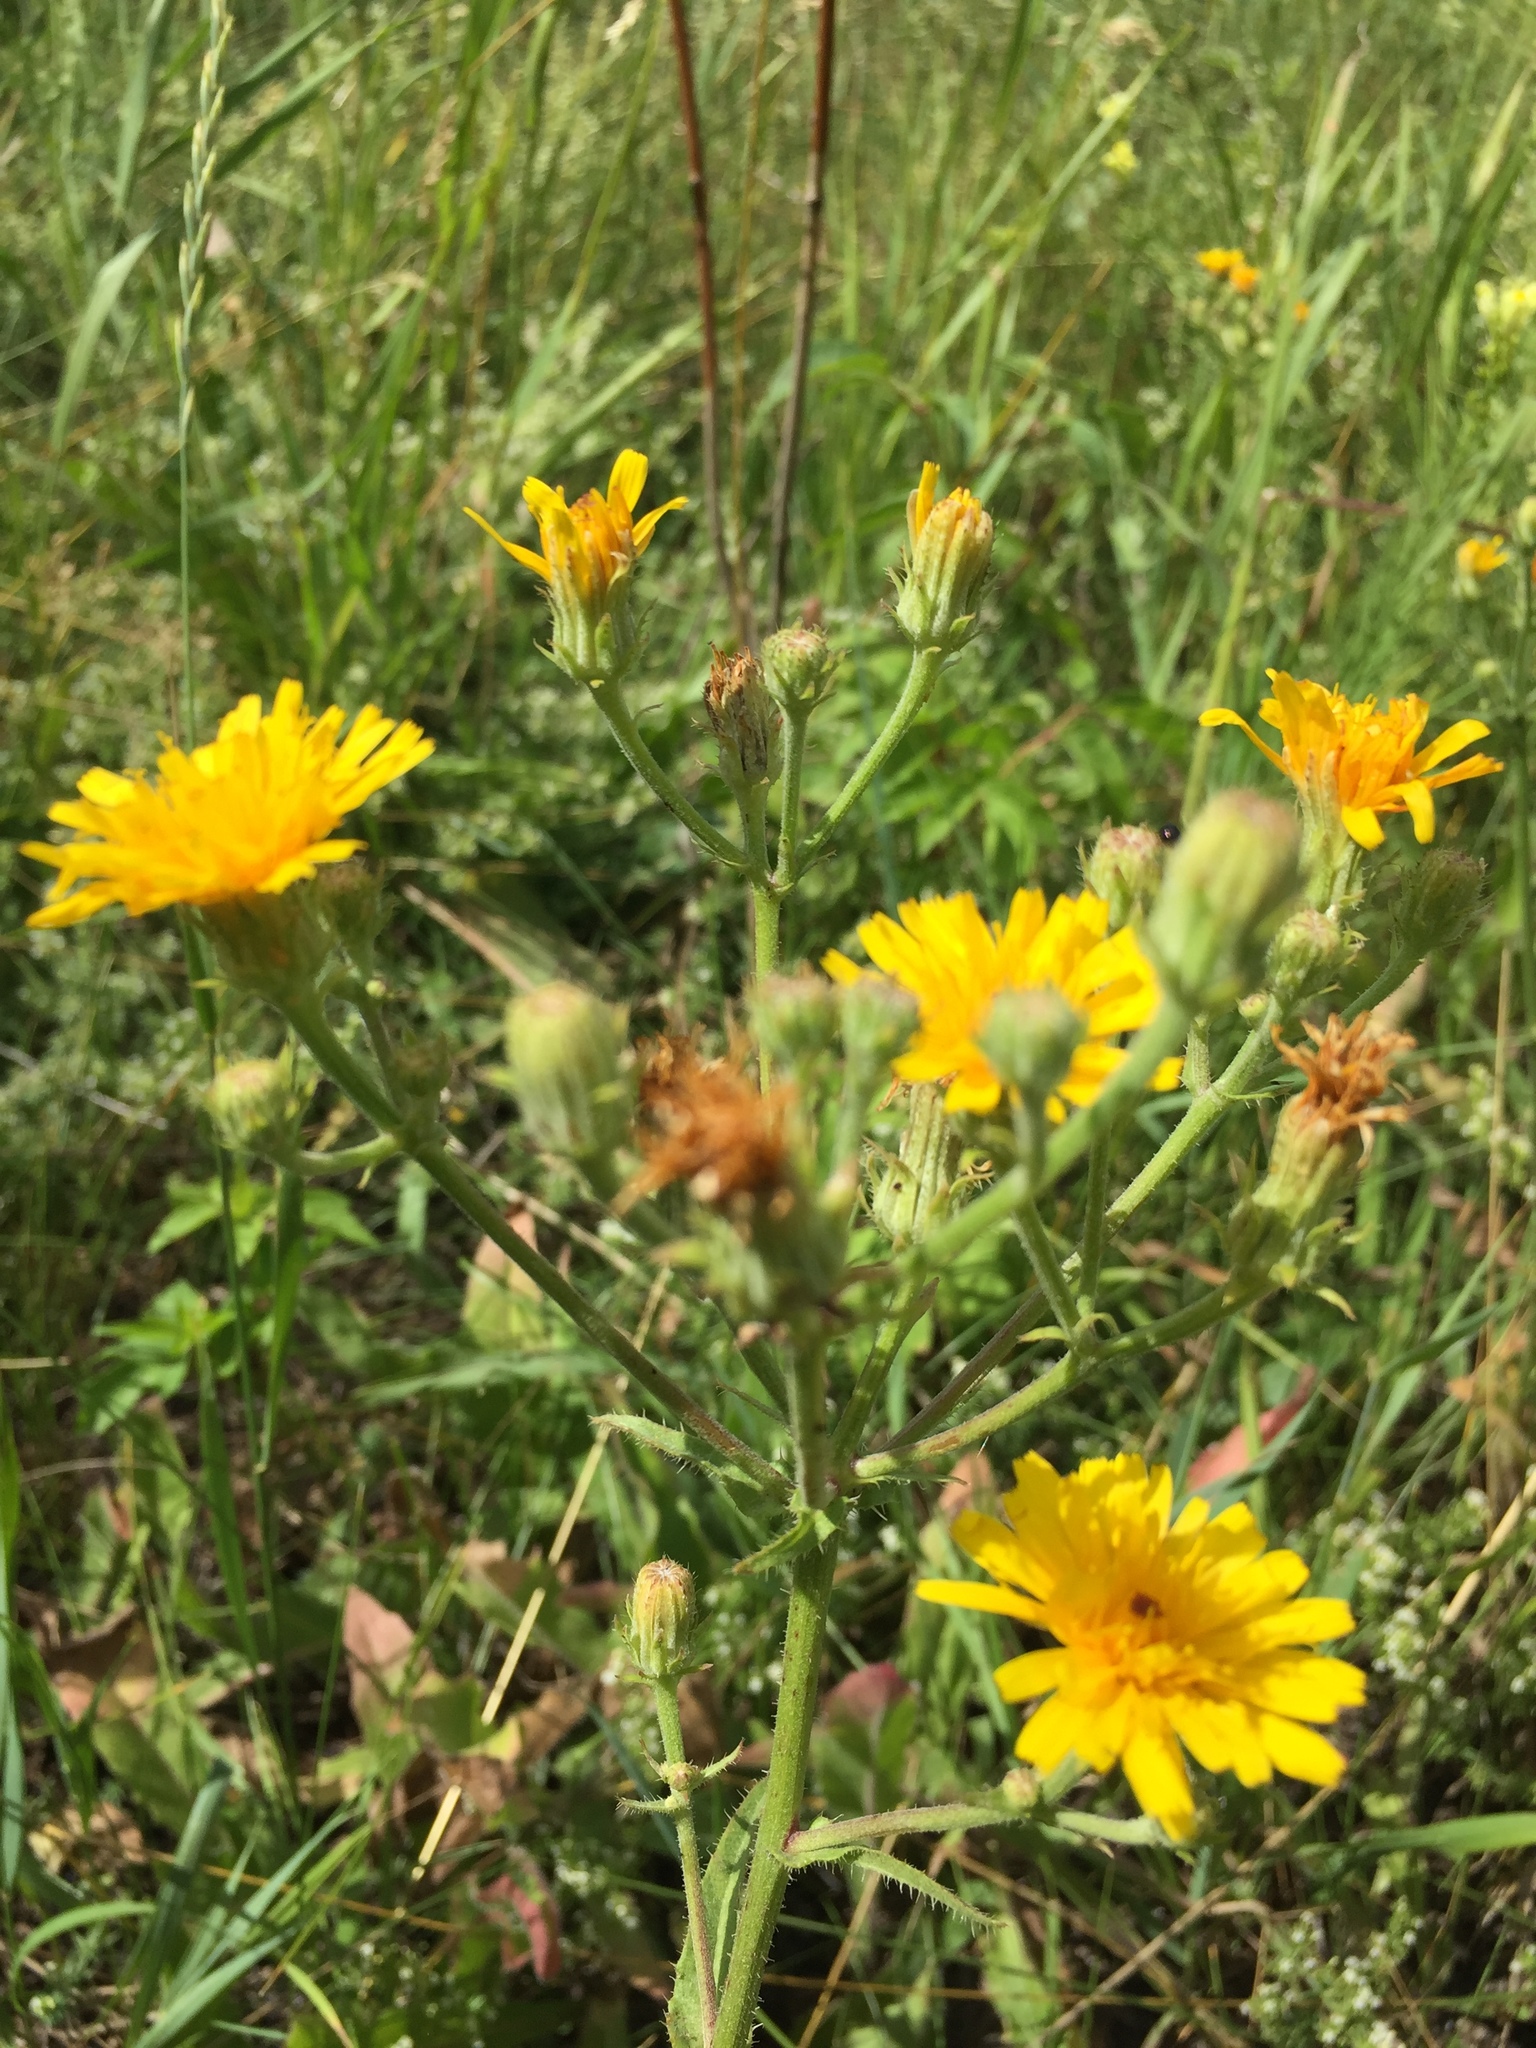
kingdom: Plantae
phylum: Tracheophyta
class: Magnoliopsida
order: Asterales
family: Asteraceae
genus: Picris
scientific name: Picris hieracioides
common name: Hawkweed oxtongue
